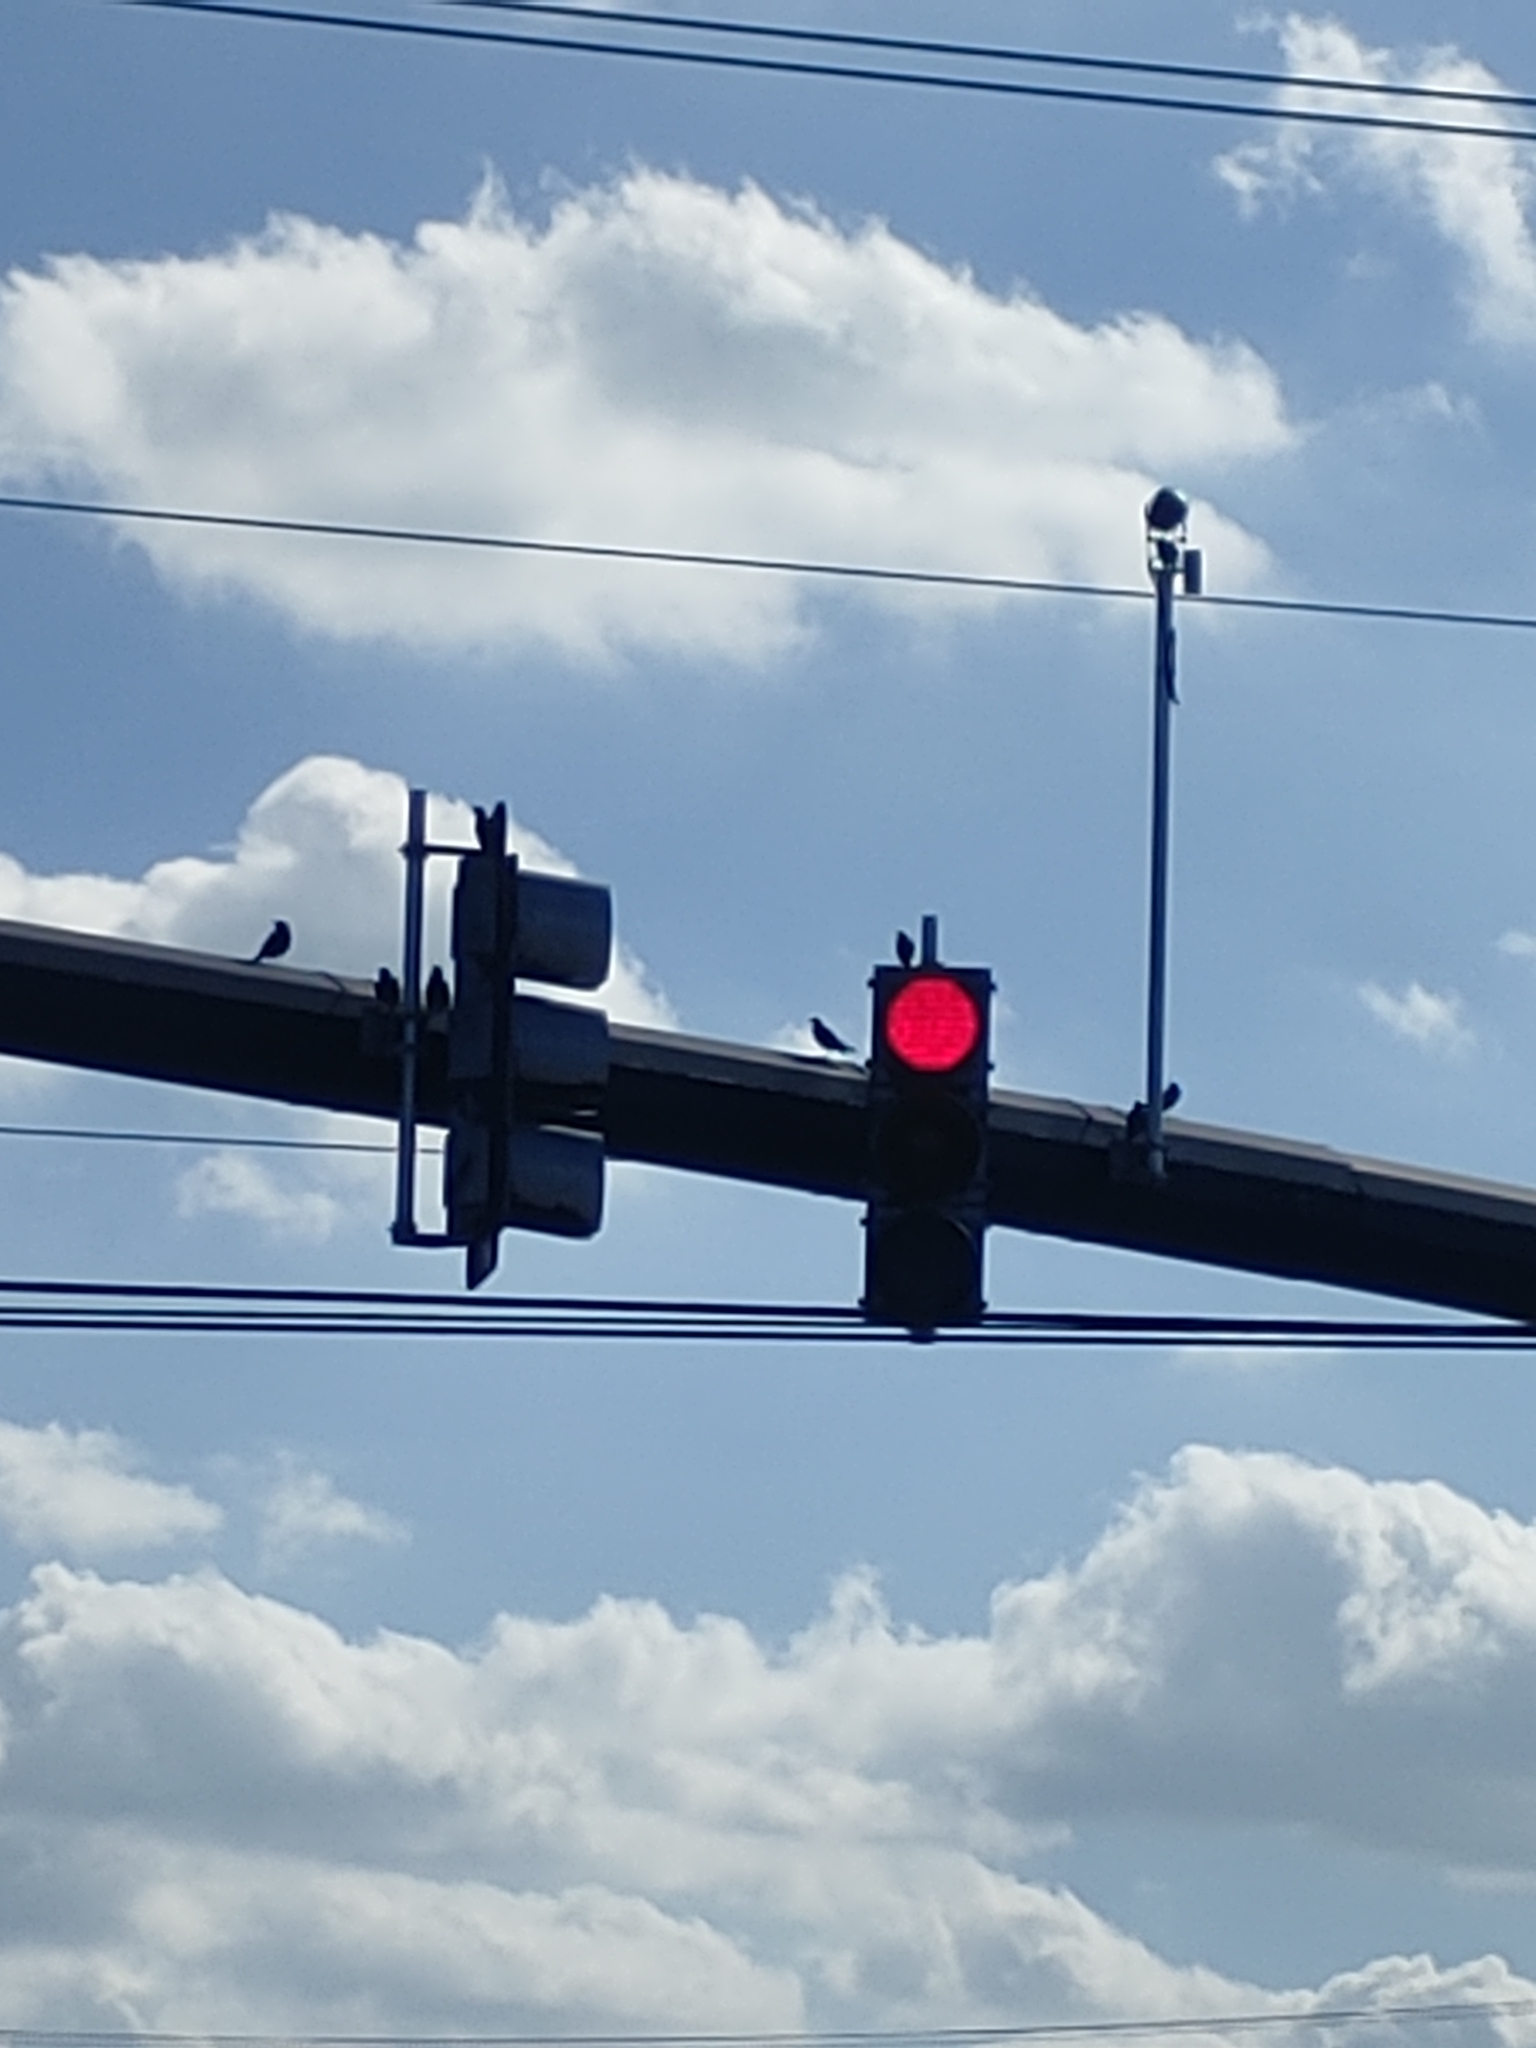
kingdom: Animalia
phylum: Chordata
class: Aves
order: Passeriformes
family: Sturnidae
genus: Sturnus
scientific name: Sturnus vulgaris
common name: Common starling
